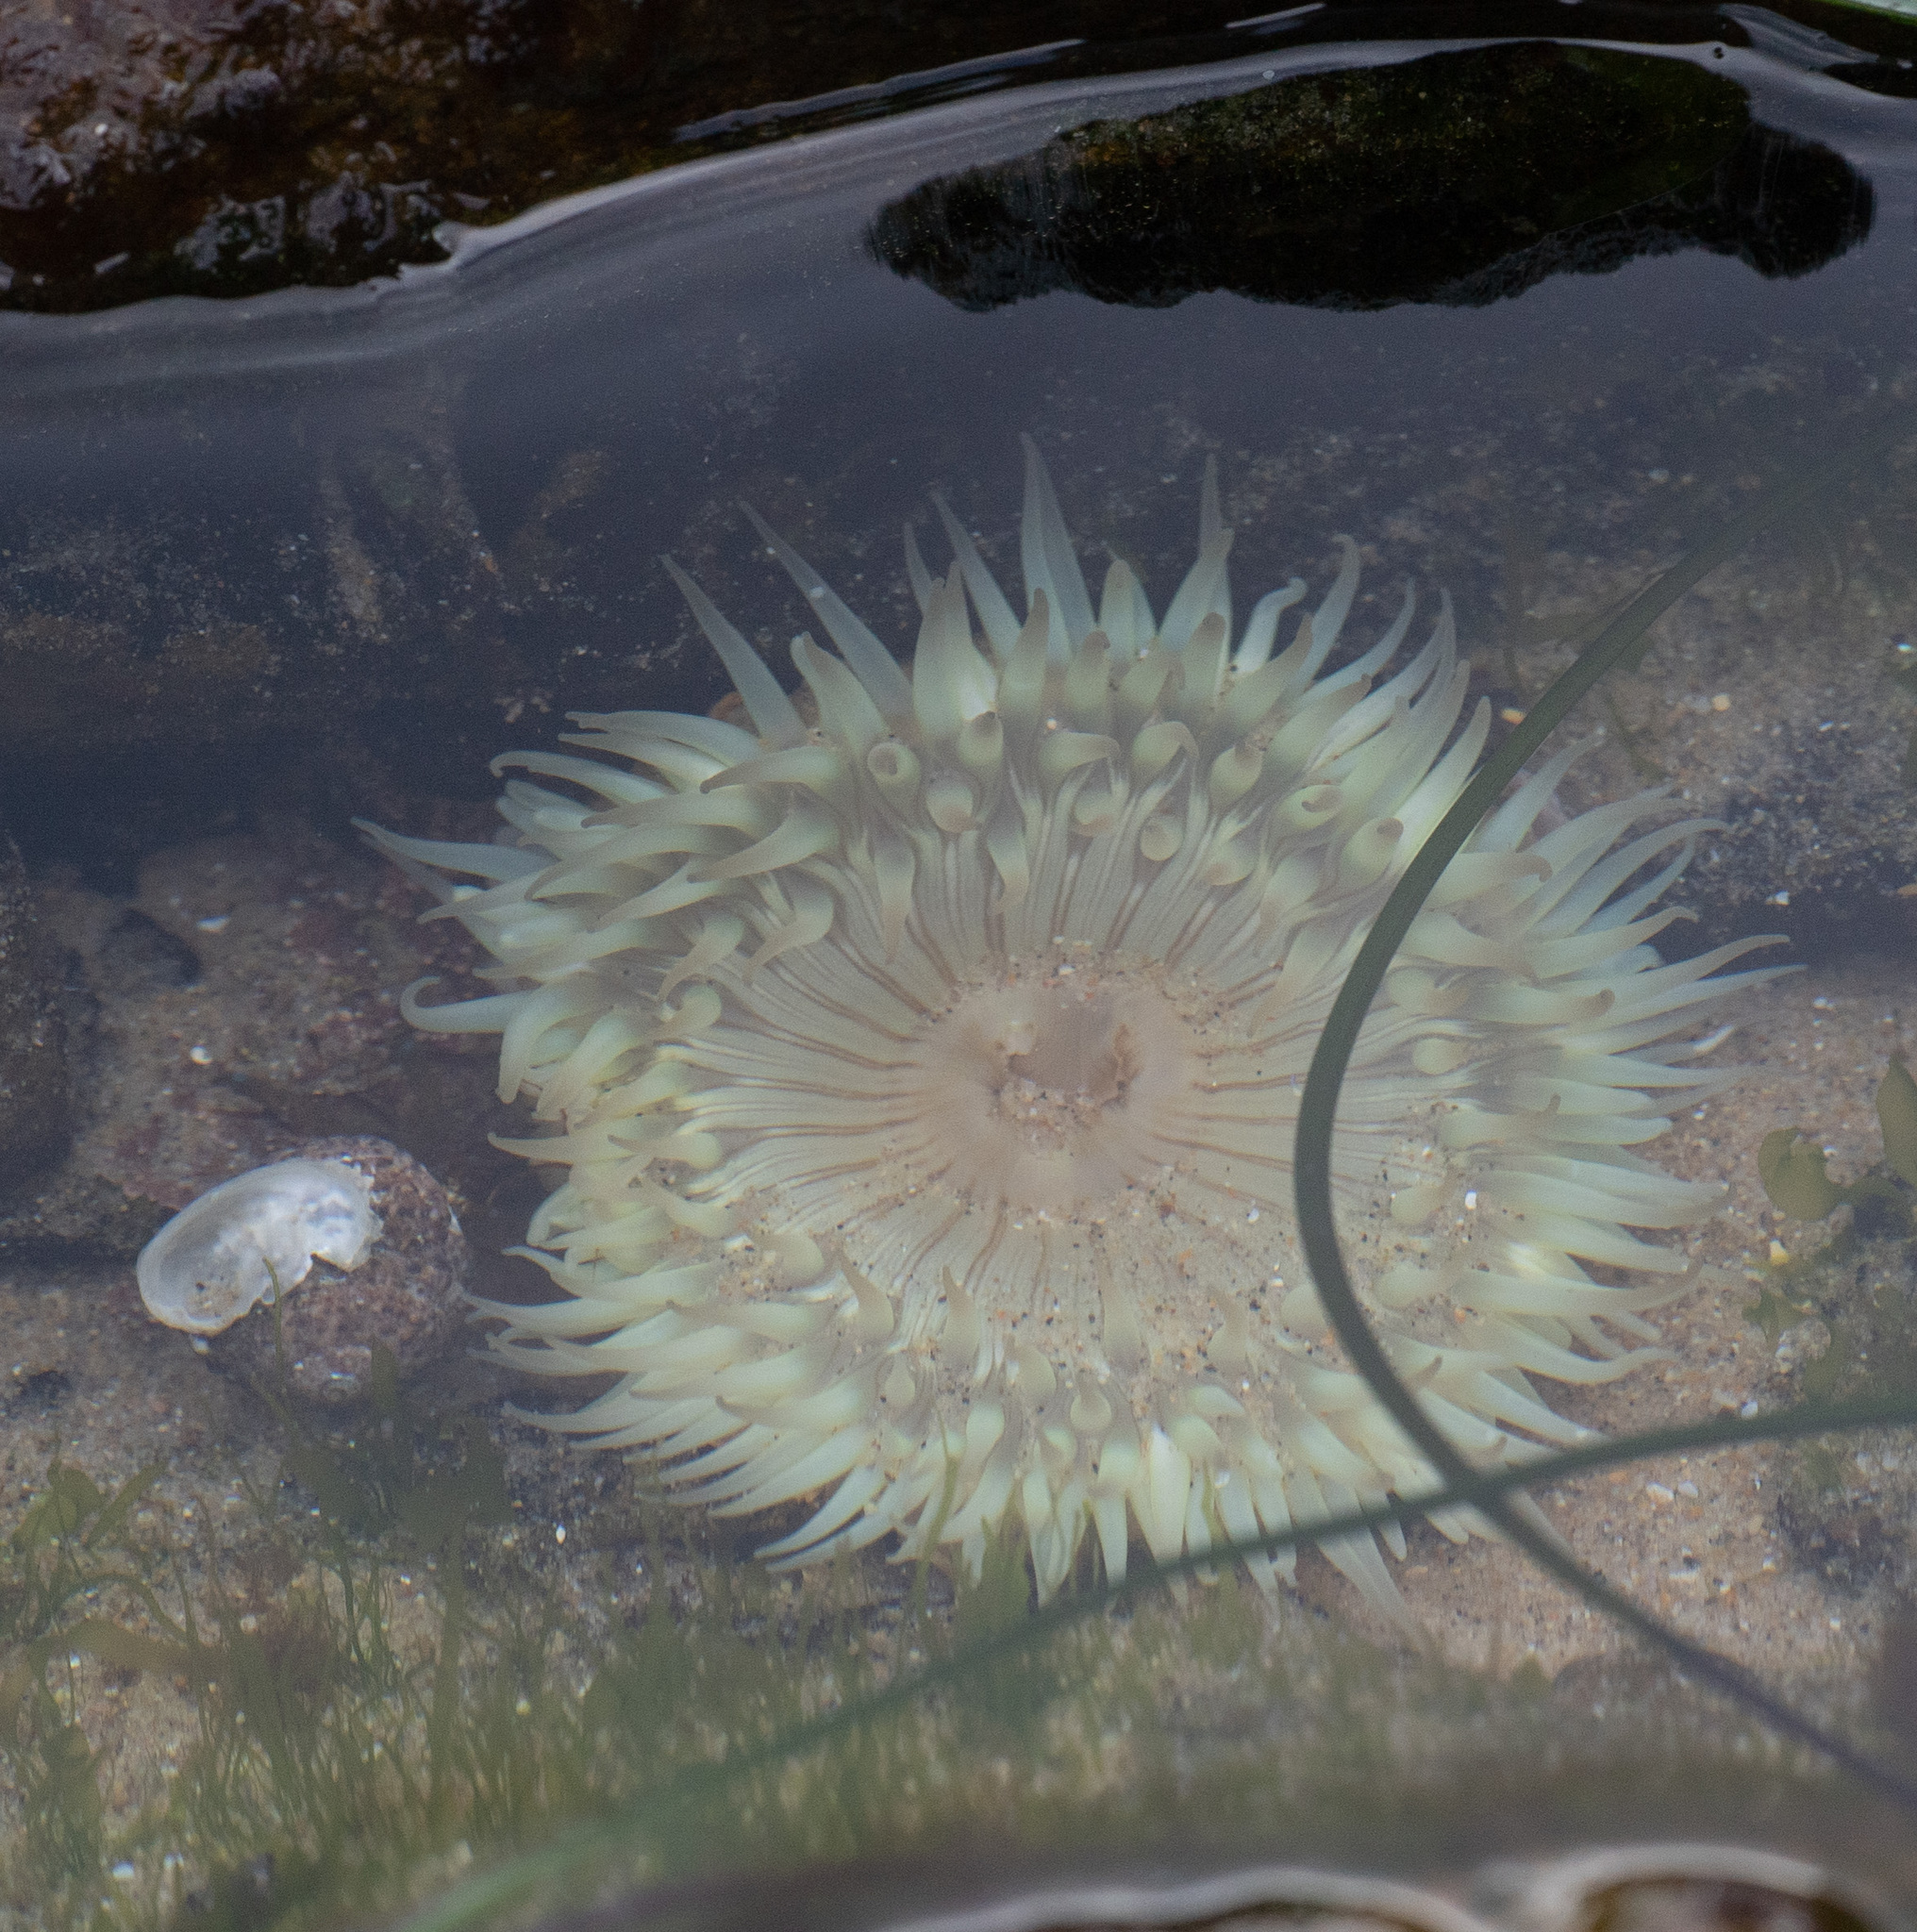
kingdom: Animalia
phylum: Cnidaria
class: Anthozoa
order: Actiniaria
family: Actiniidae
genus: Anthopleura
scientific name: Anthopleura sola
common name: Sun anemone
